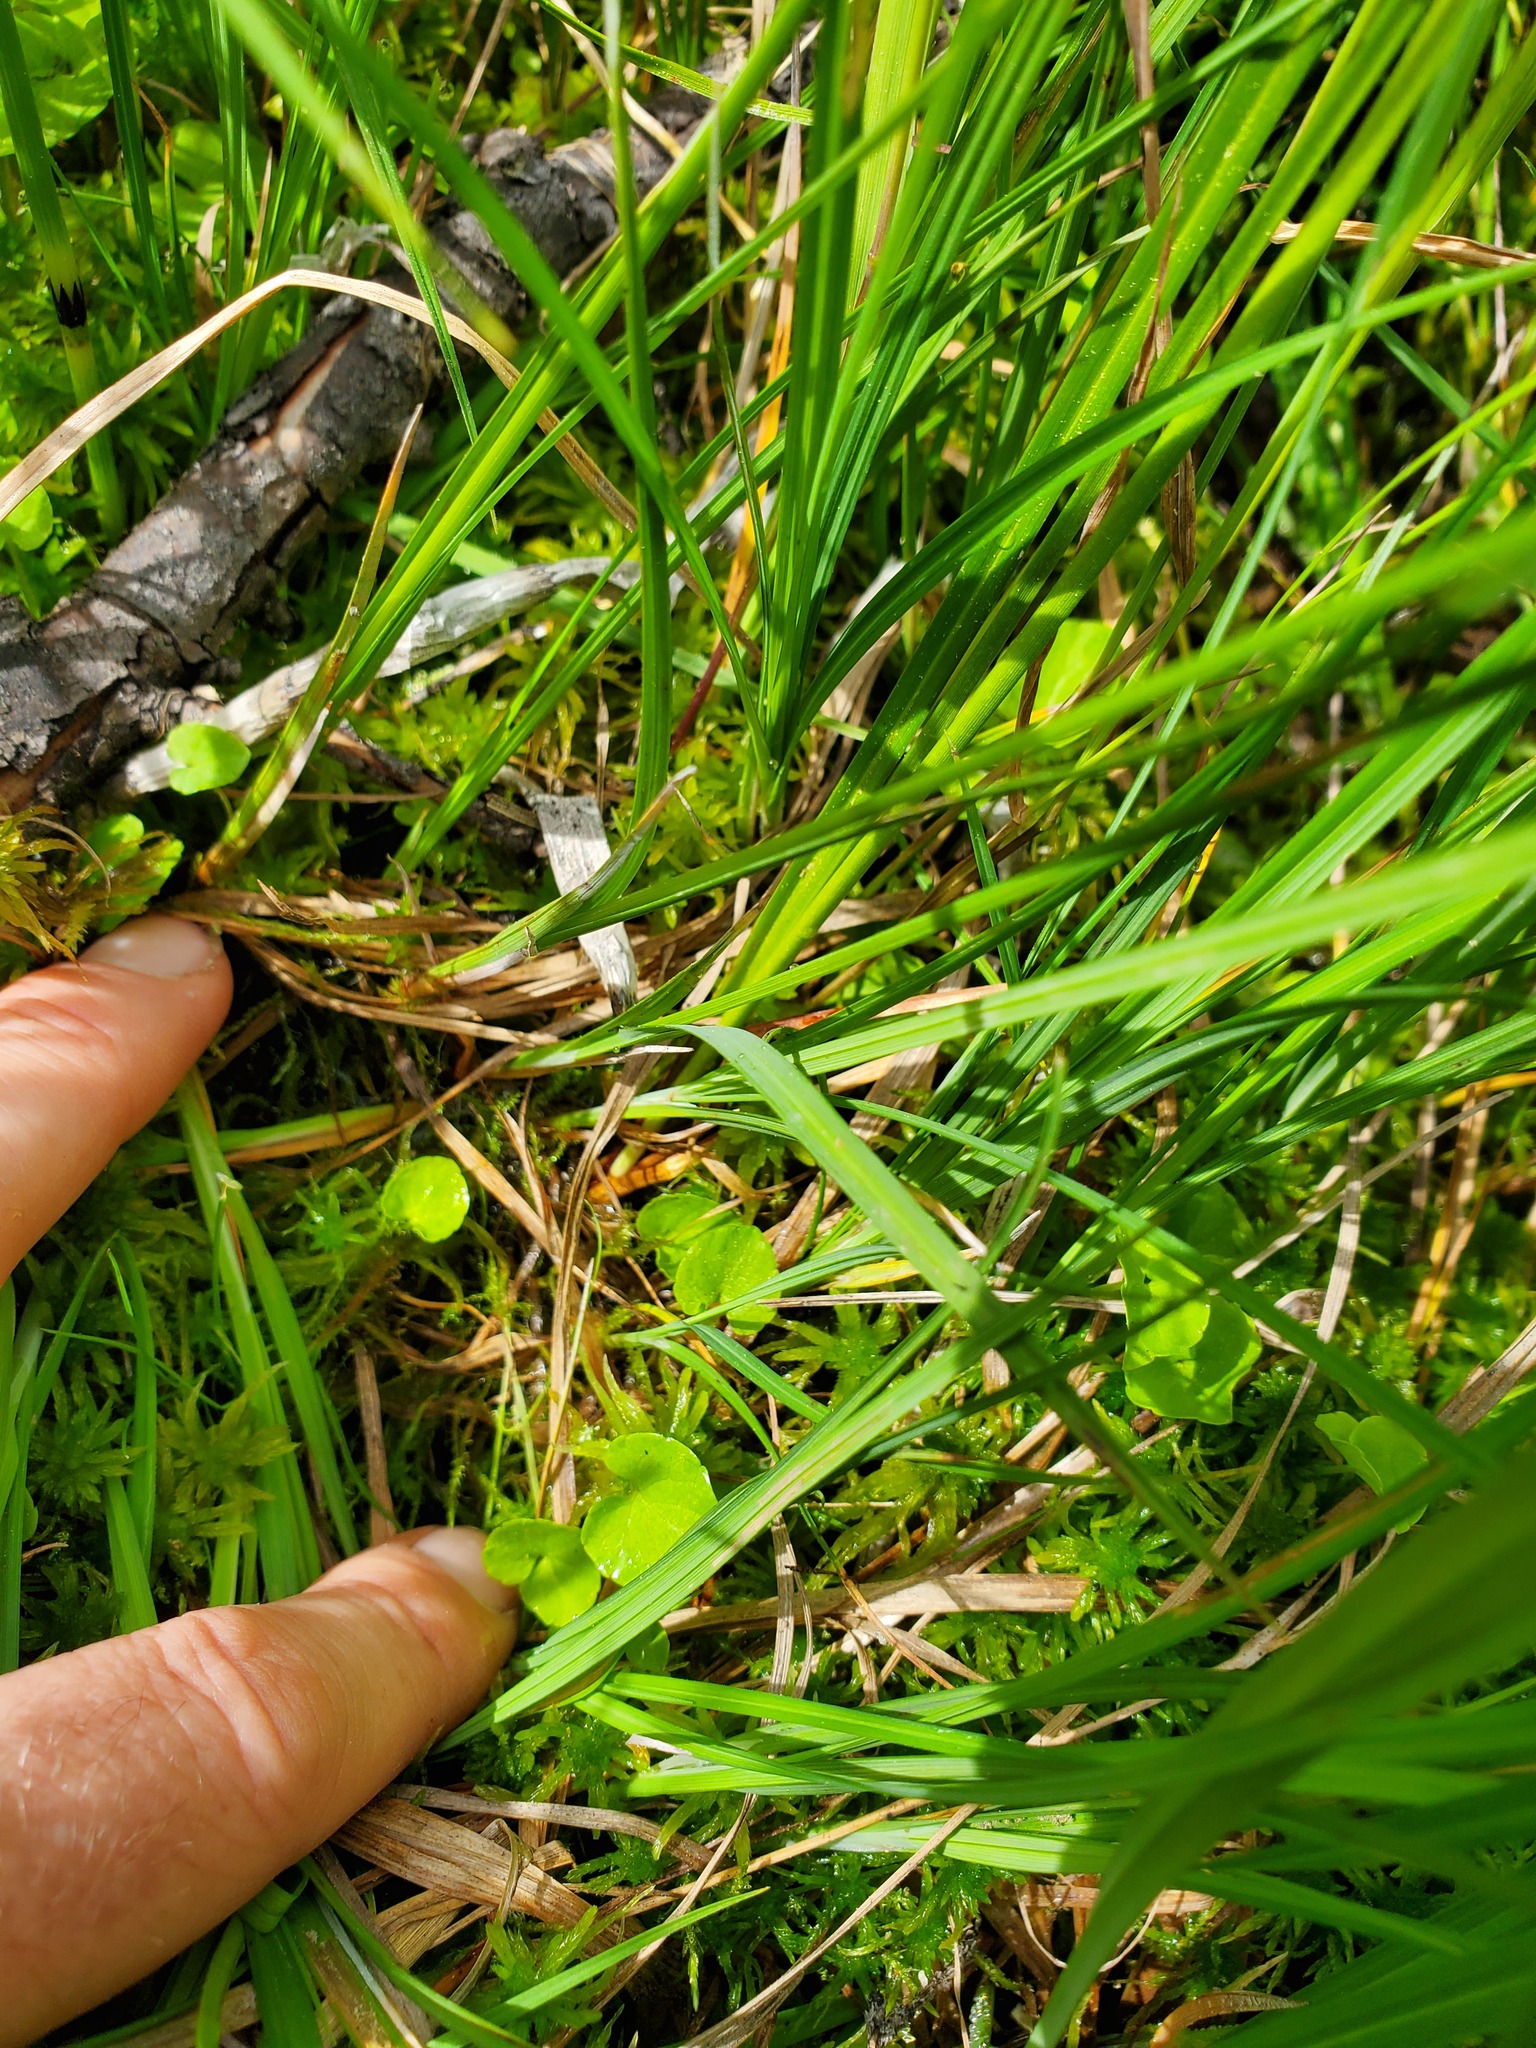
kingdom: Plantae
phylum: Tracheophyta
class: Liliopsida
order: Poales
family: Cyperaceae
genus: Carex
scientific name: Carex magellanica
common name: Bog sedge
